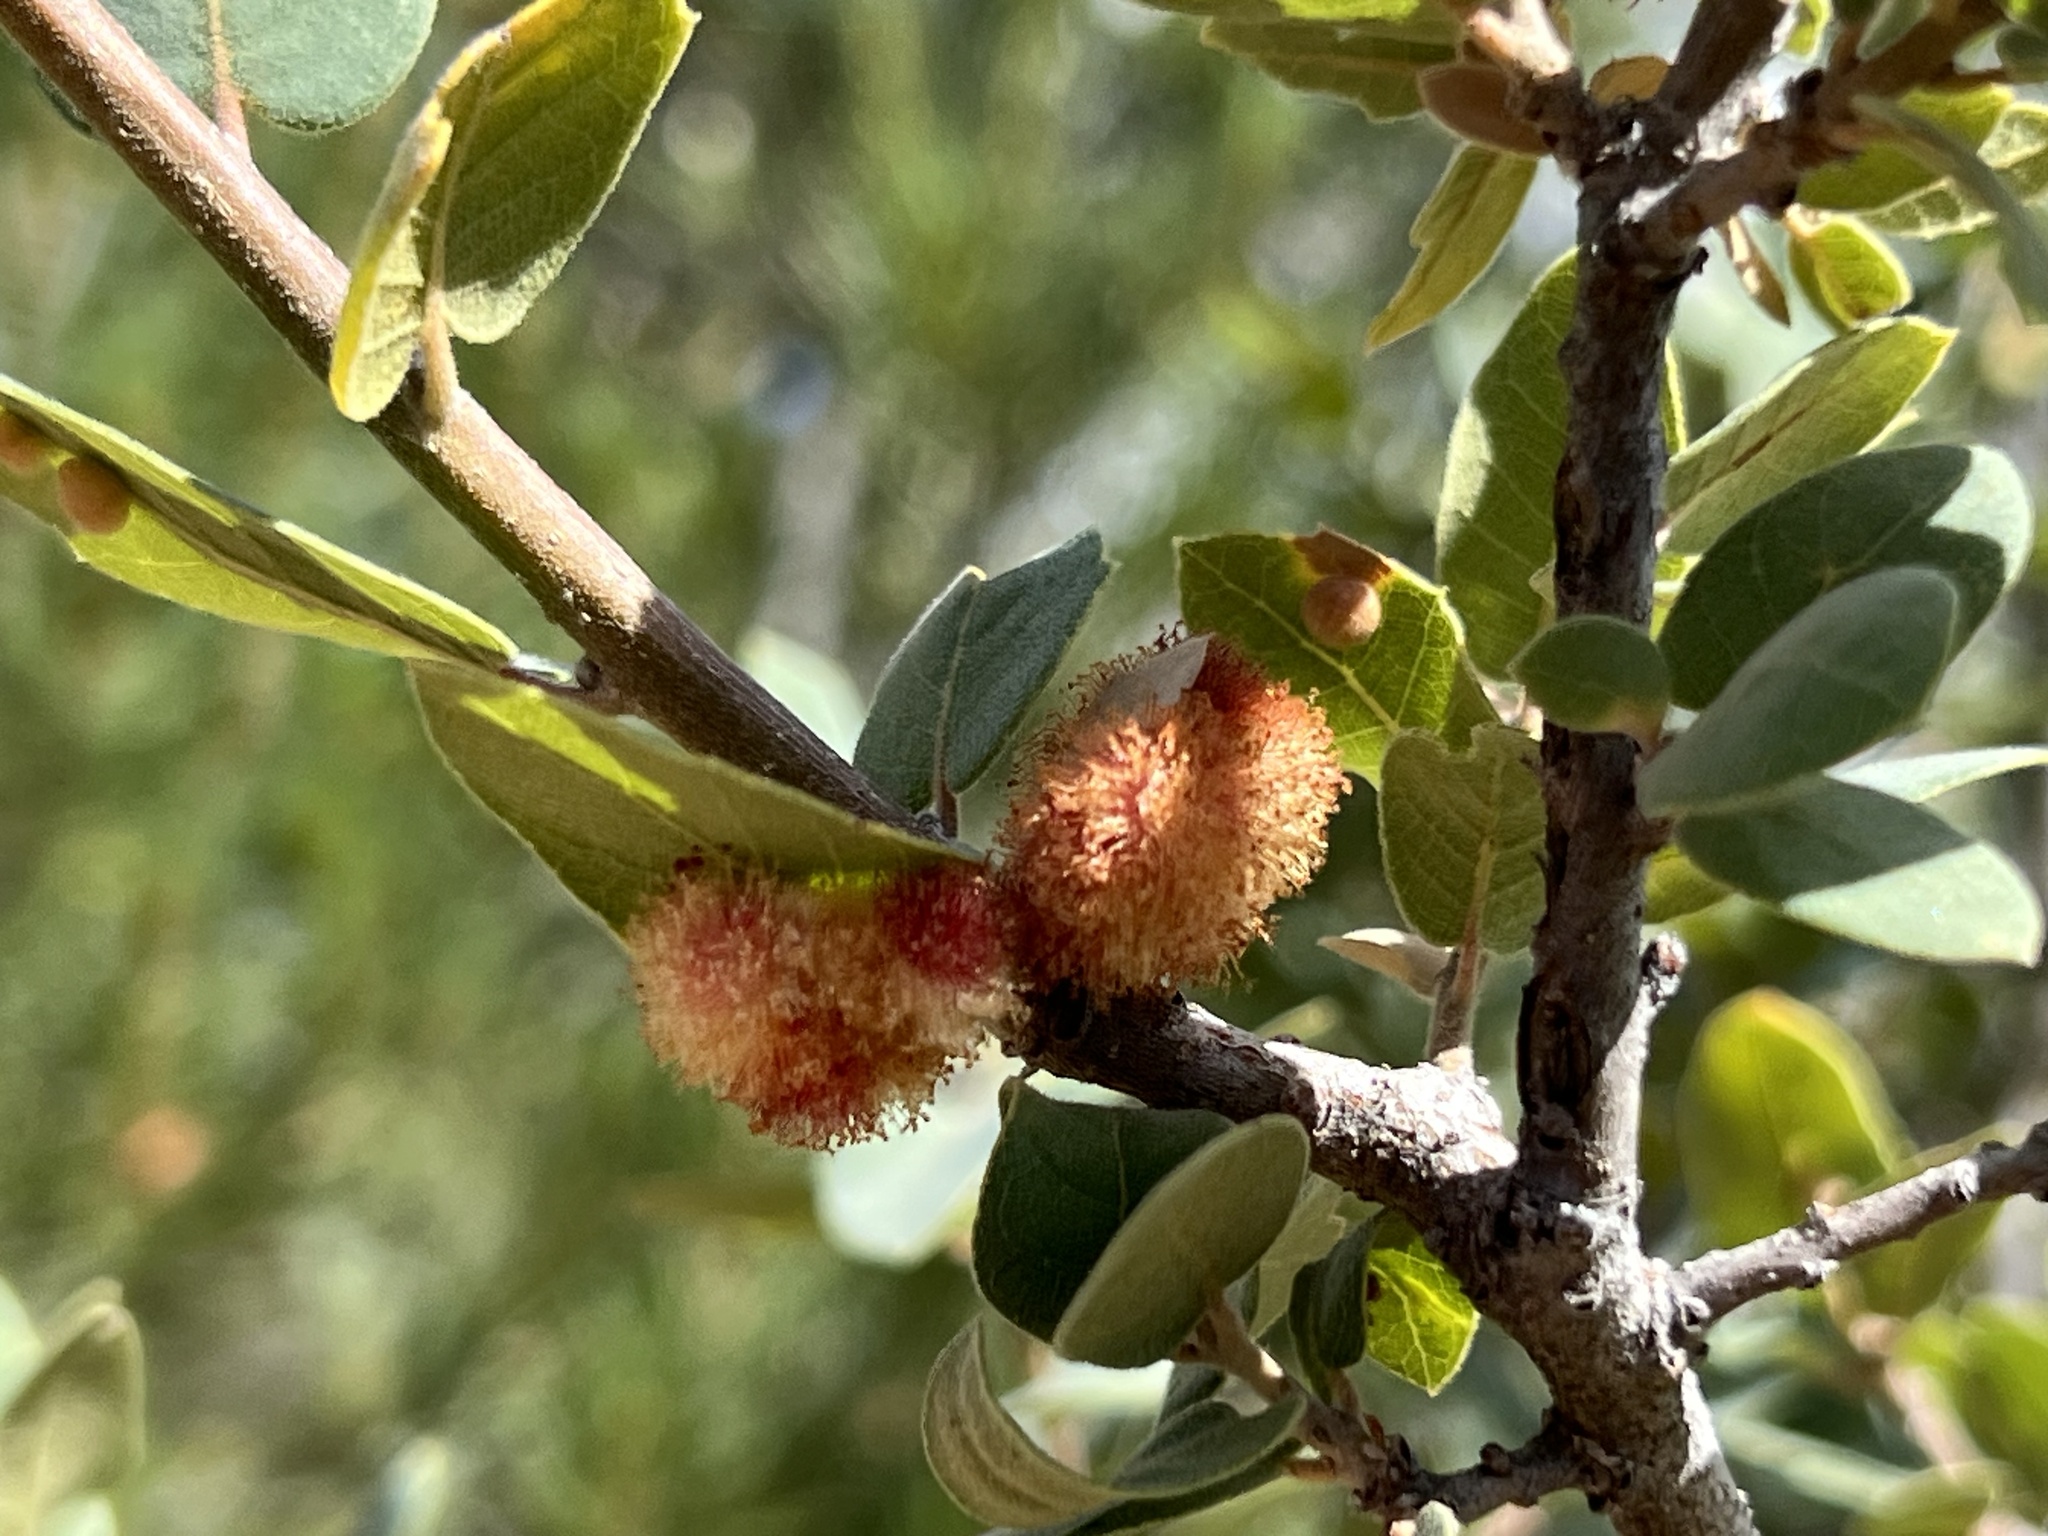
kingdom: Animalia
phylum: Arthropoda
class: Insecta
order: Hymenoptera
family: Cynipidae
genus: Andricus
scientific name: Andricus
